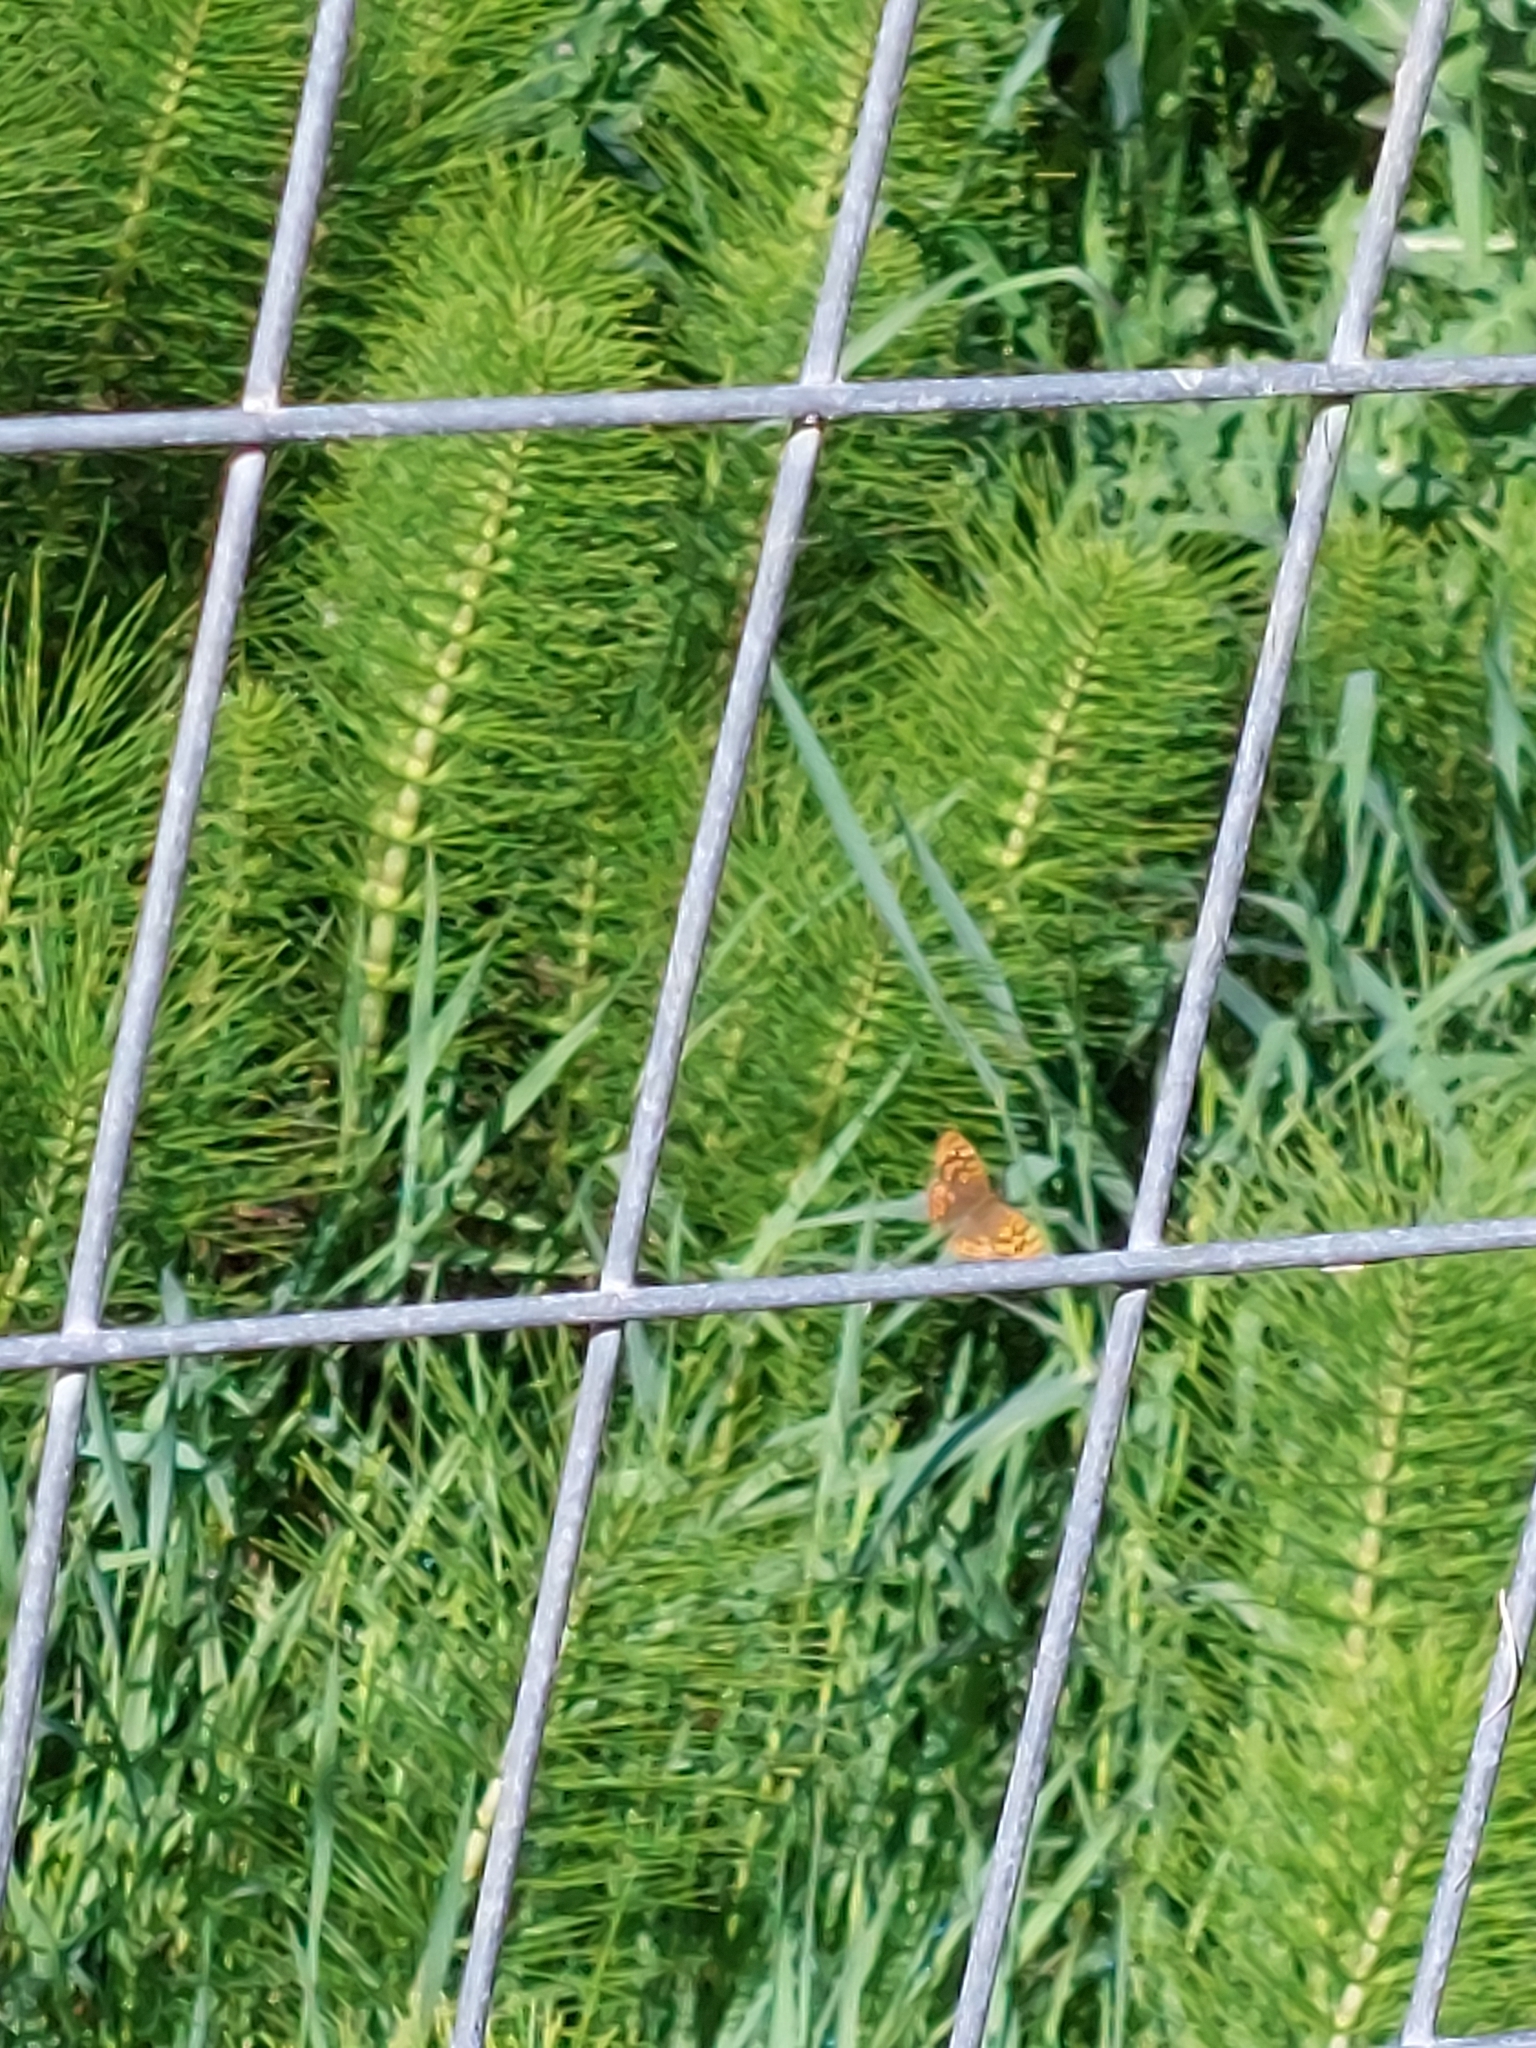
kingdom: Plantae
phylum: Tracheophyta
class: Polypodiopsida
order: Equisetales
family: Equisetaceae
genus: Equisetum
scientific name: Equisetum telmateia
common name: Great horsetail
